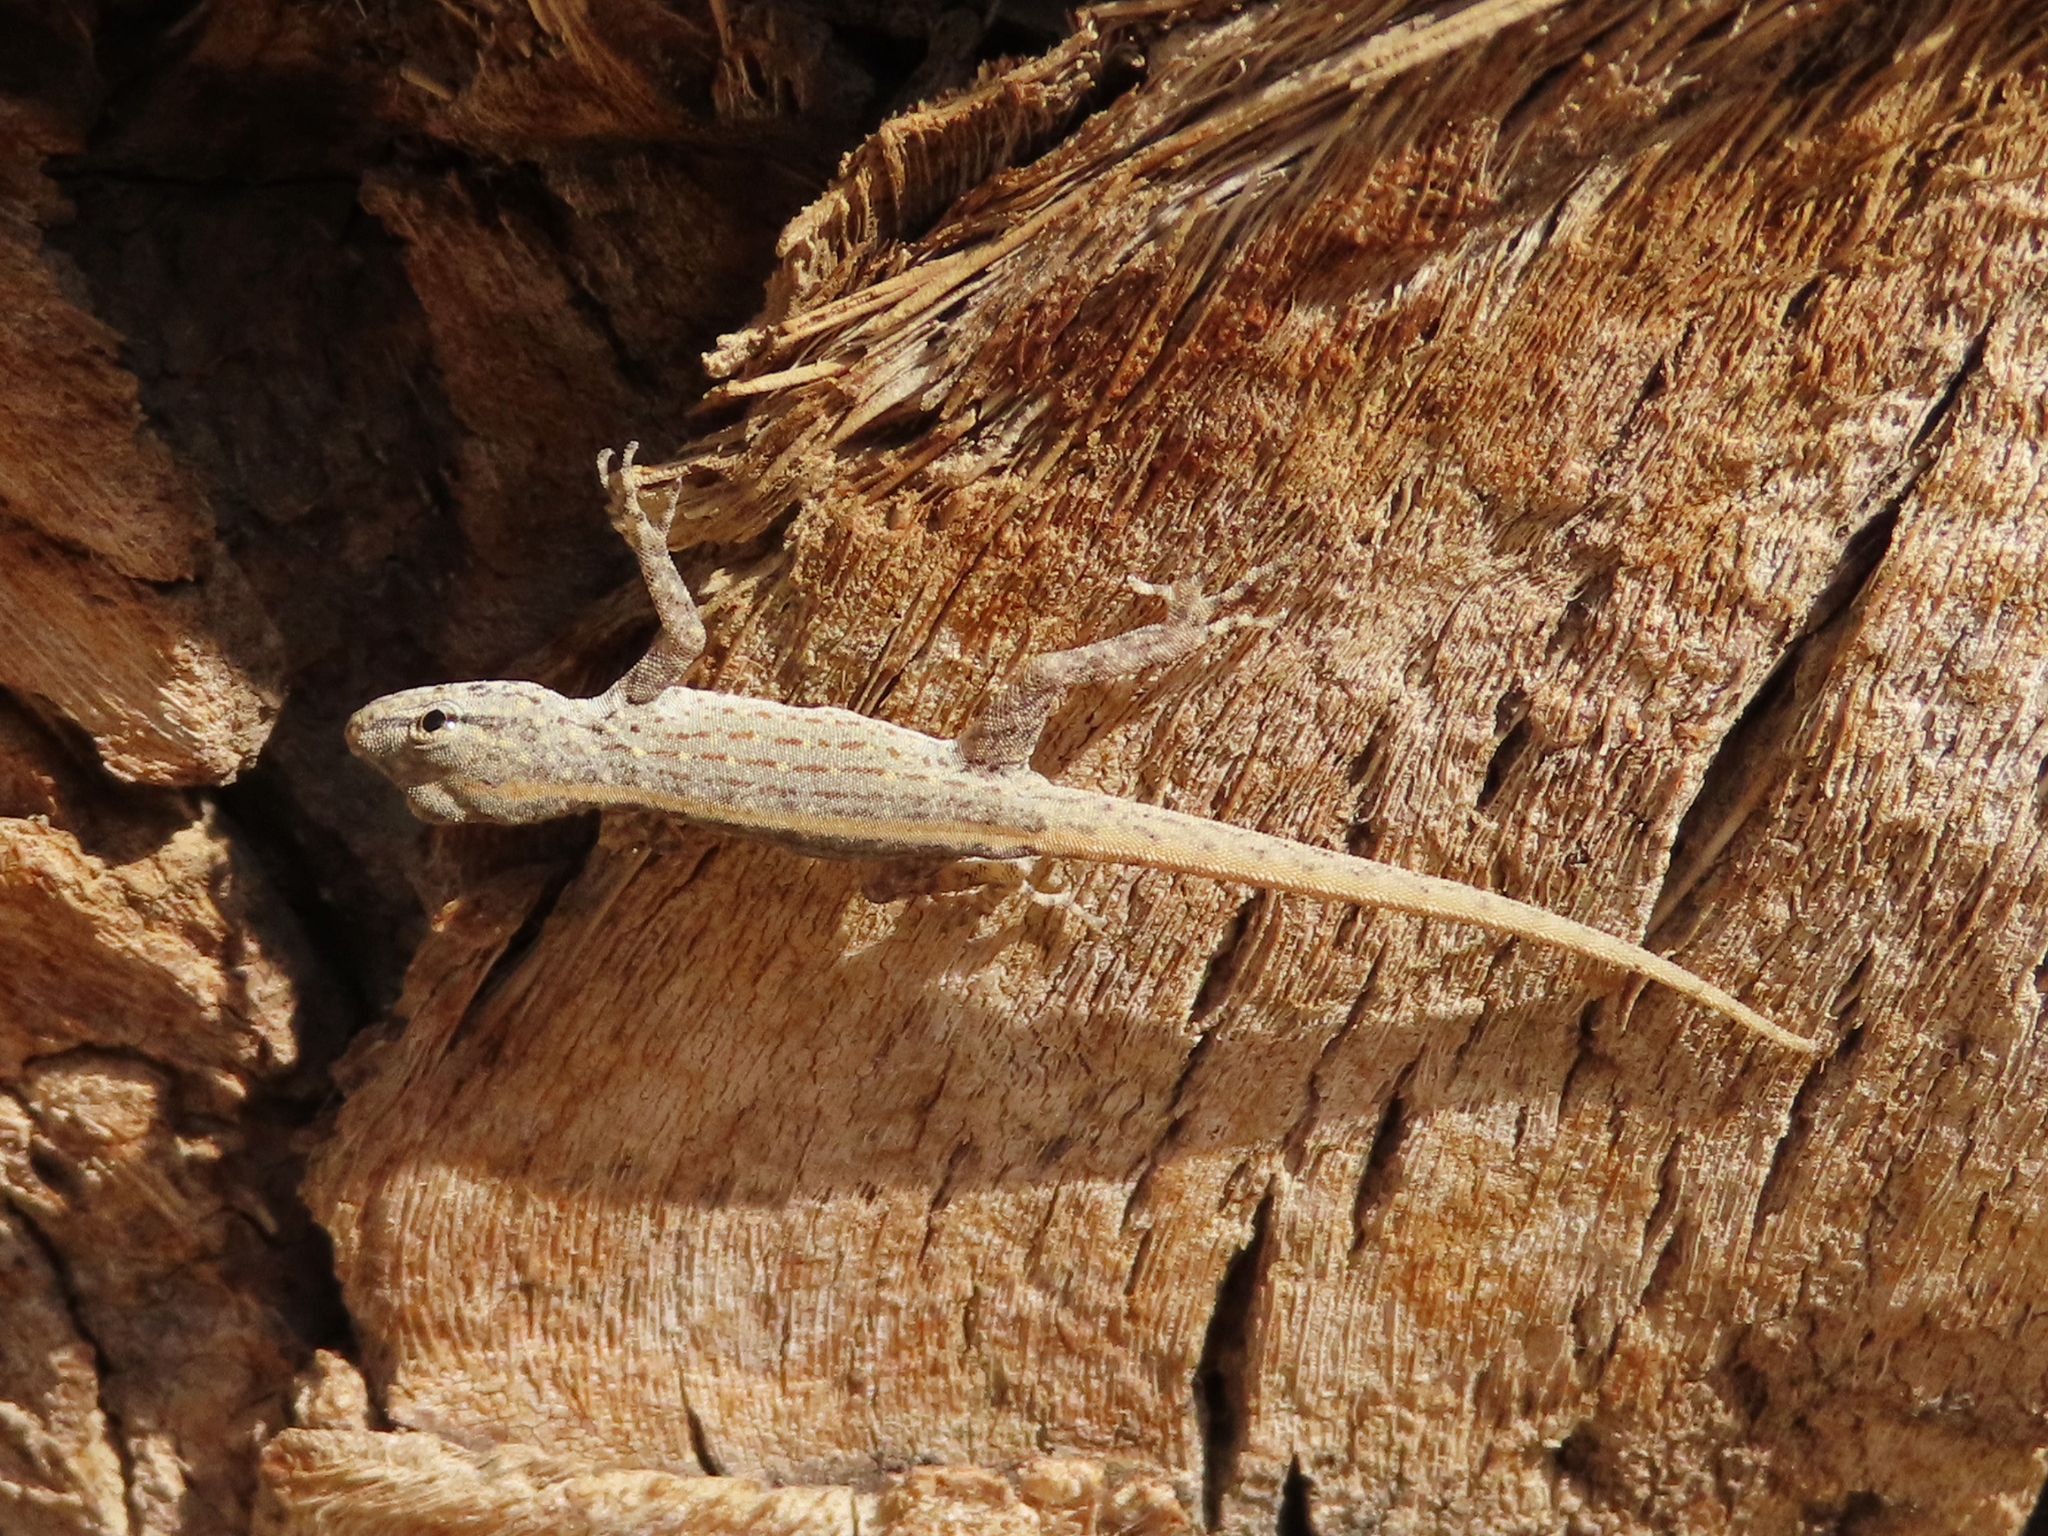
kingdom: Animalia
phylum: Chordata
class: Squamata
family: Sphaerodactylidae
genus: Pristurus
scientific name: Pristurus rupestris
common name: Blanford’s semaphore gecko
